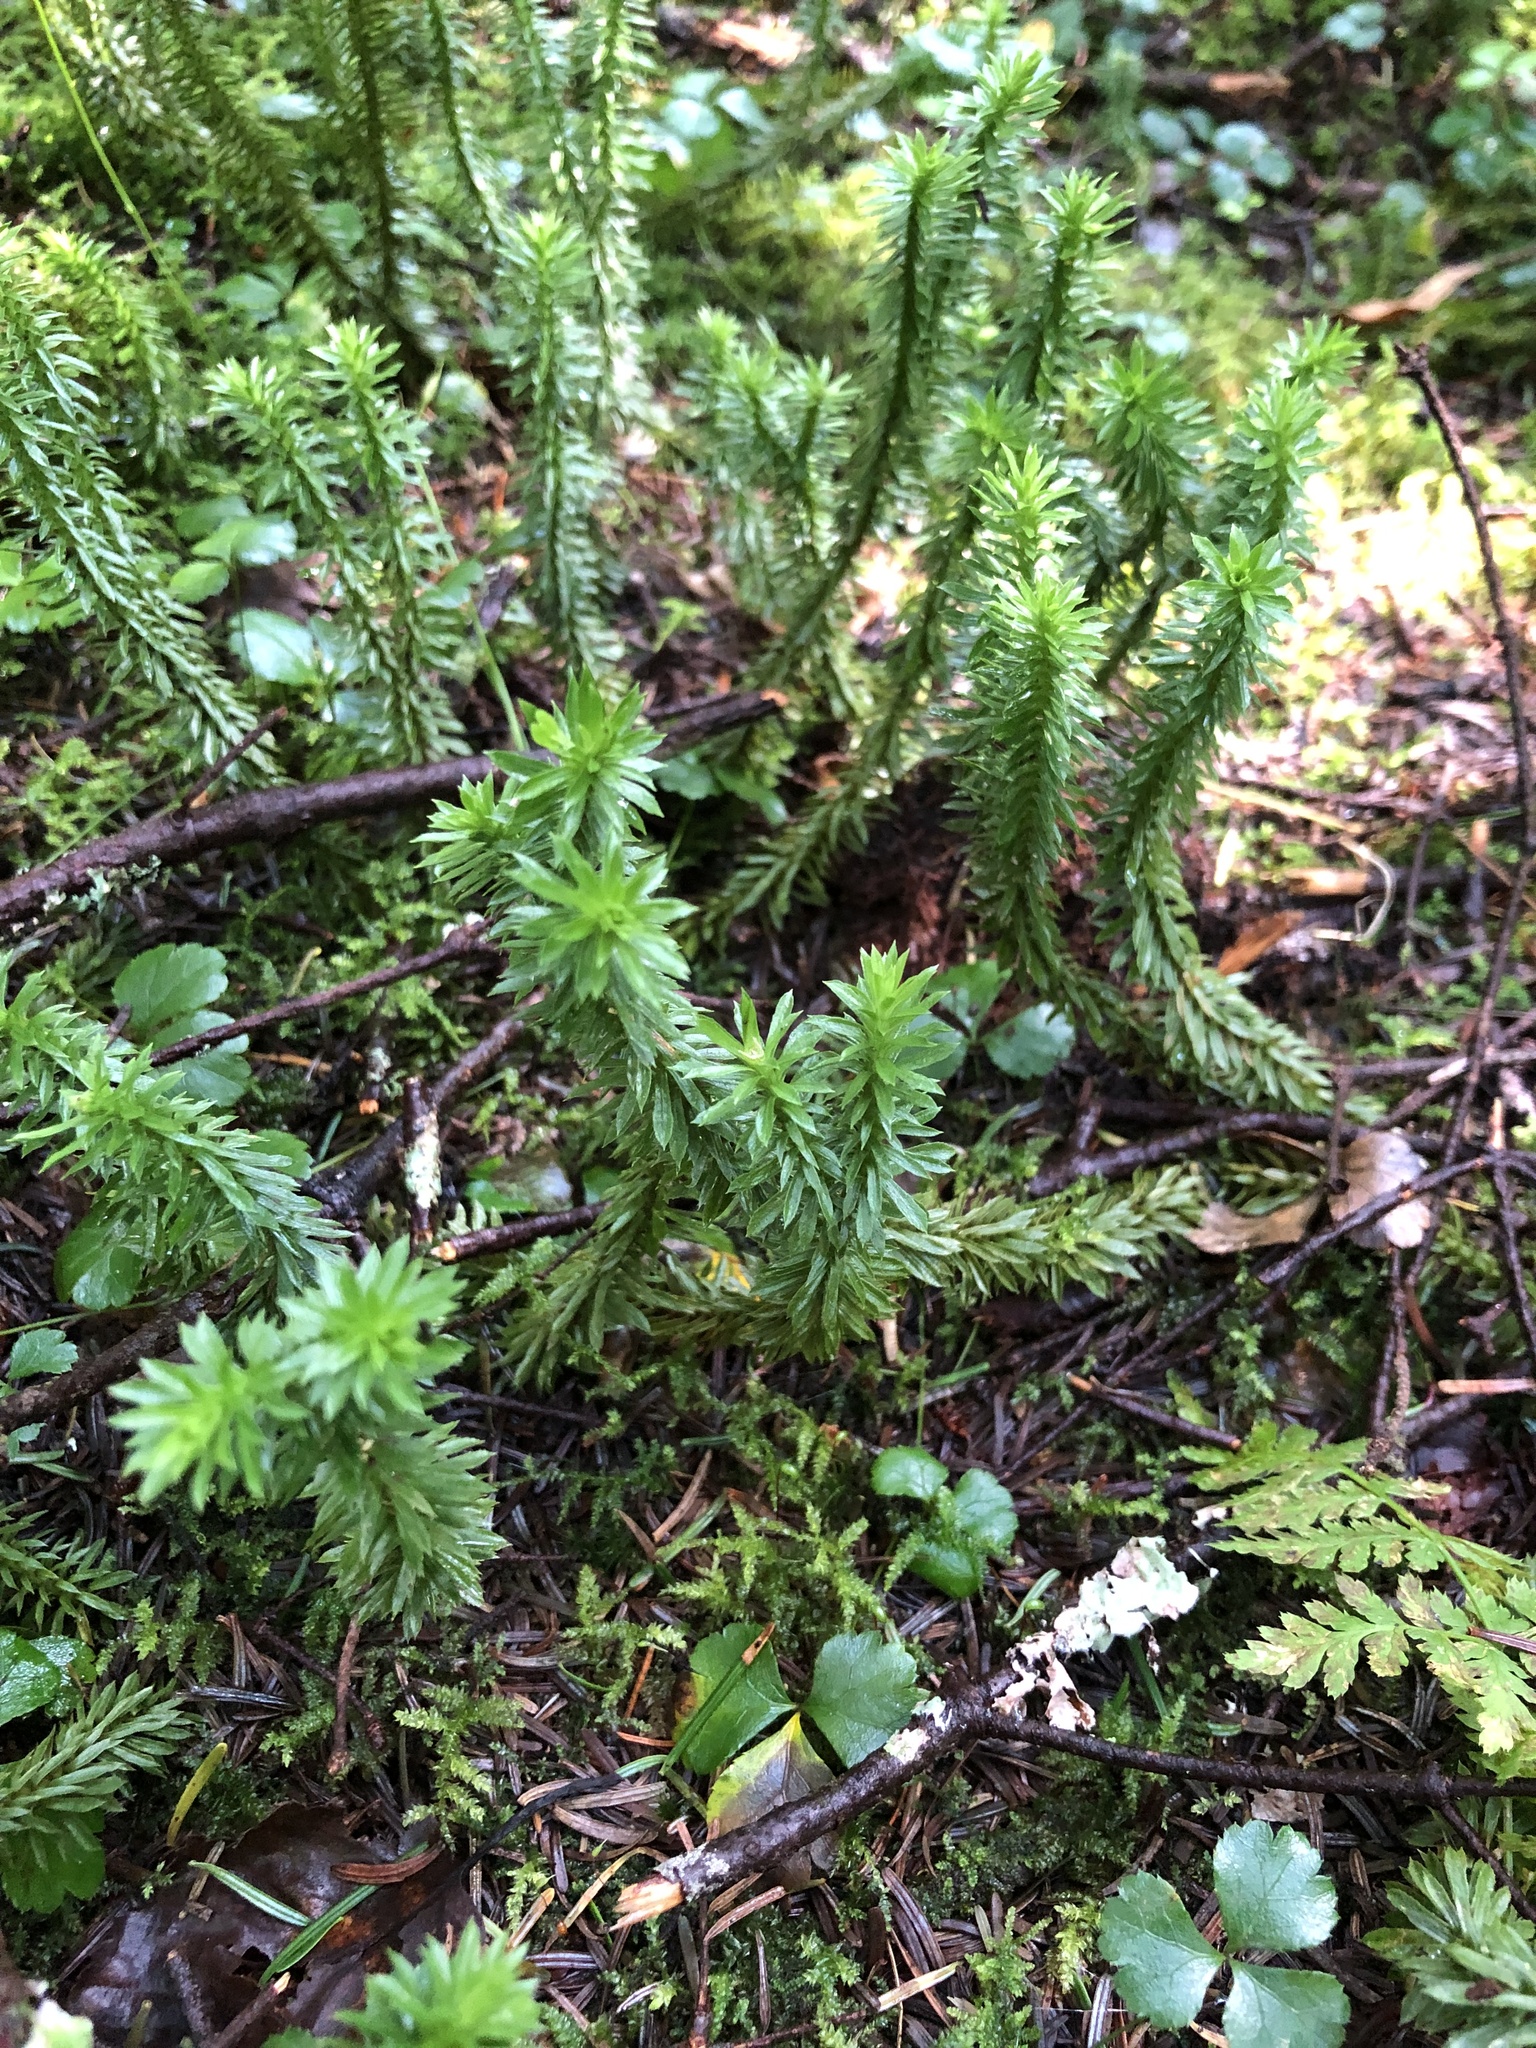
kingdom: Plantae
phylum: Tracheophyta
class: Lycopodiopsida
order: Lycopodiales
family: Lycopodiaceae
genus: Huperzia
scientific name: Huperzia lucidula
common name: Shining clubmoss
